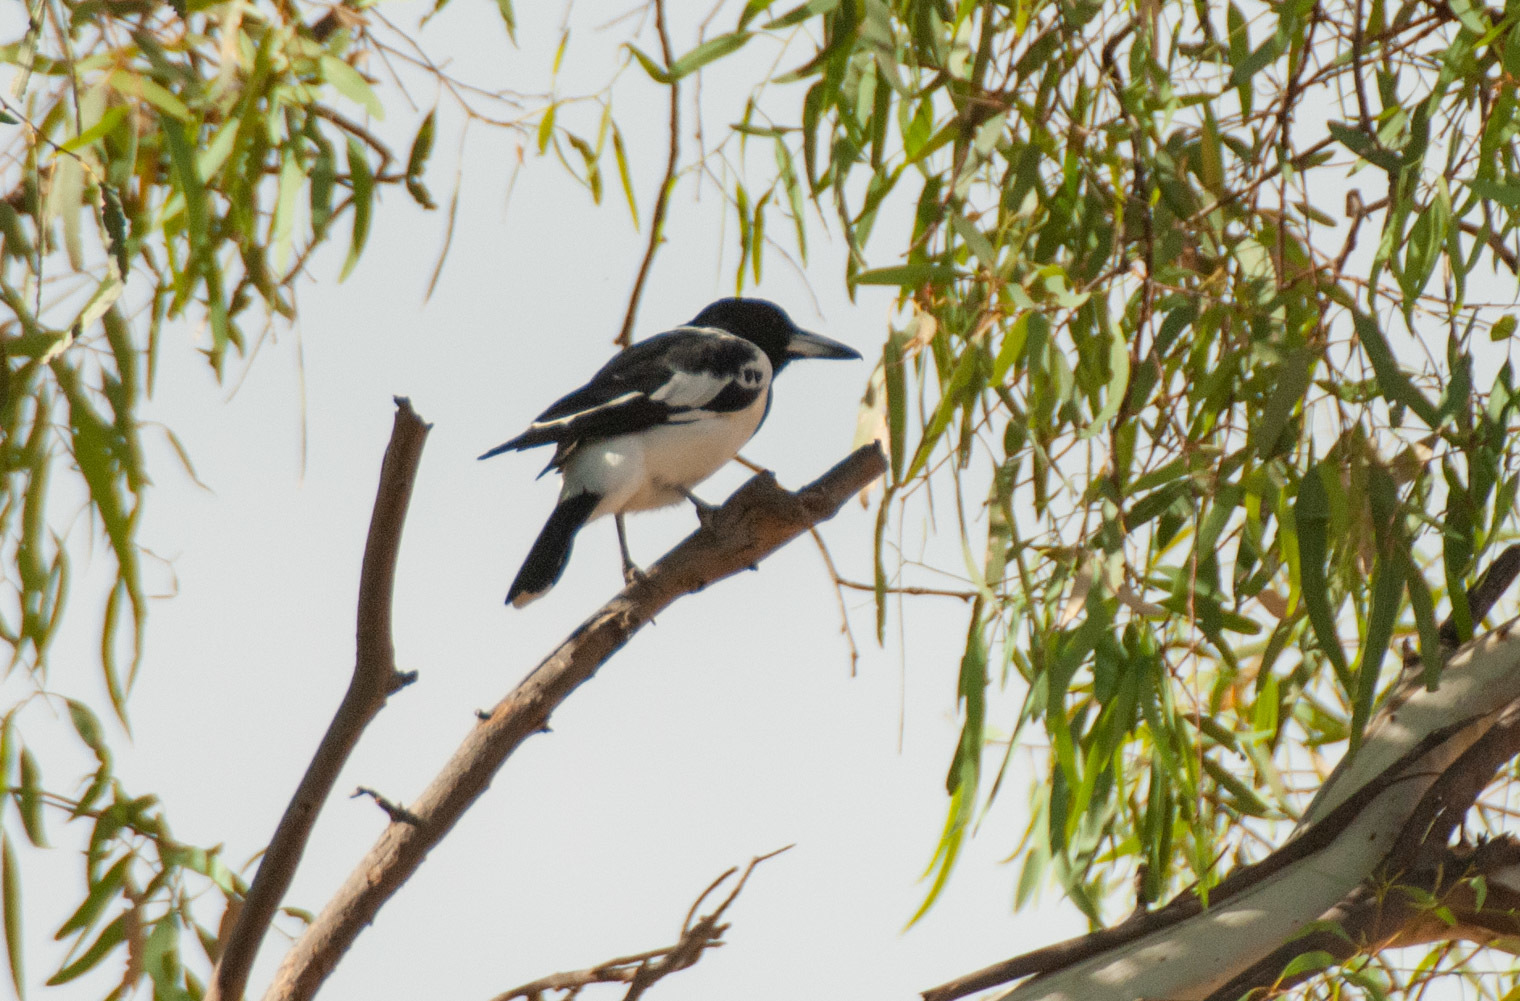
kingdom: Animalia
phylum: Chordata
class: Aves
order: Passeriformes
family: Cracticidae
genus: Cracticus
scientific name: Cracticus nigrogularis
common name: Pied butcherbird
